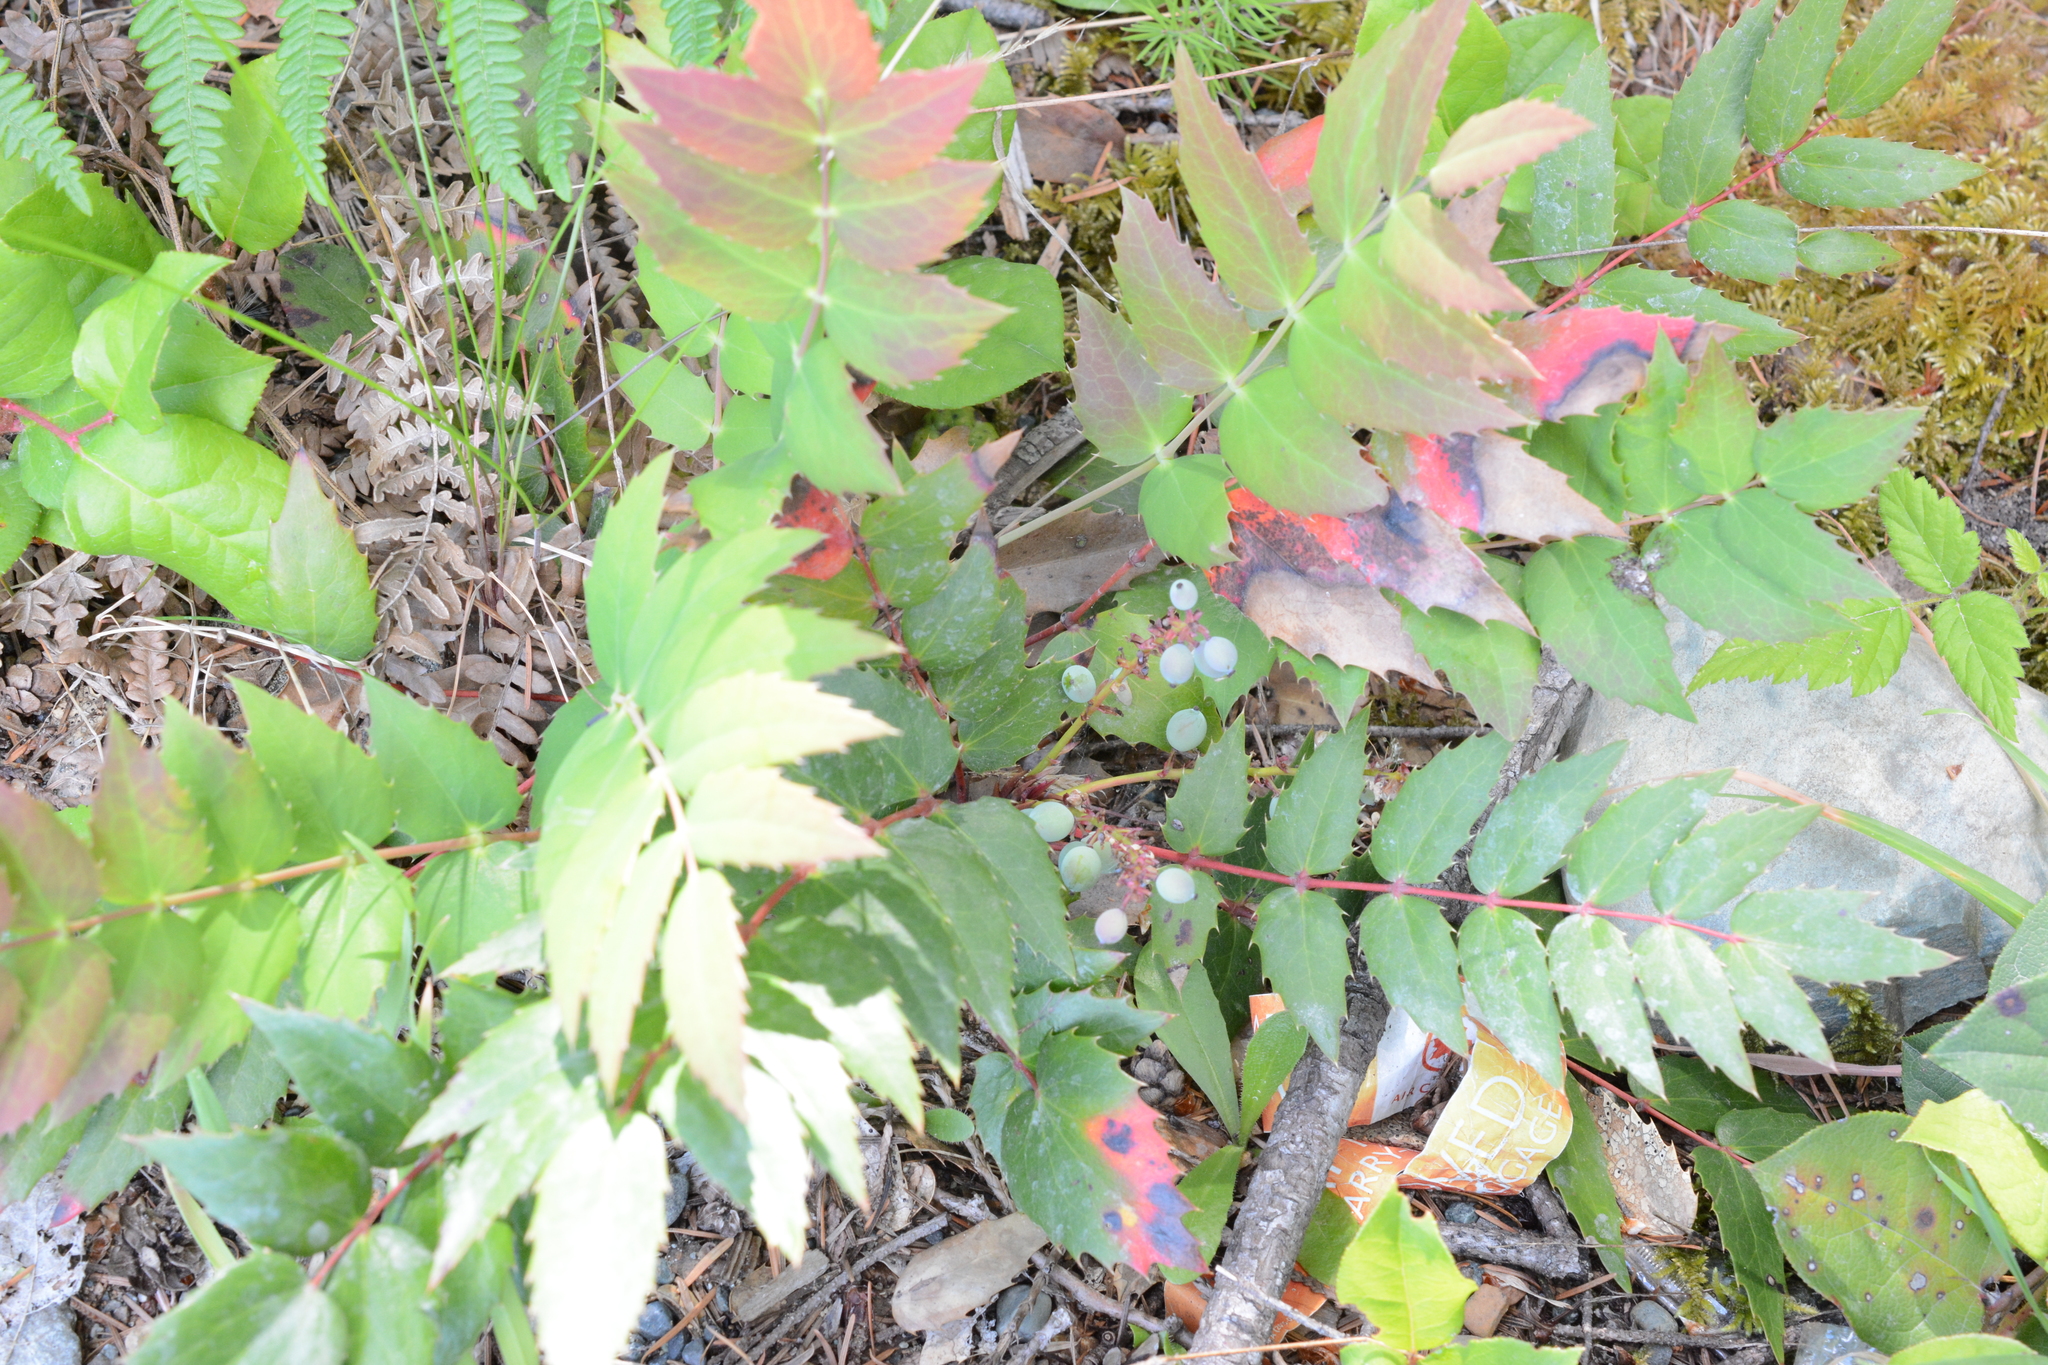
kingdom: Plantae
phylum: Tracheophyta
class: Magnoliopsida
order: Ranunculales
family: Berberidaceae
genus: Mahonia
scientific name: Mahonia nervosa
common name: Cascade oregon-grape
